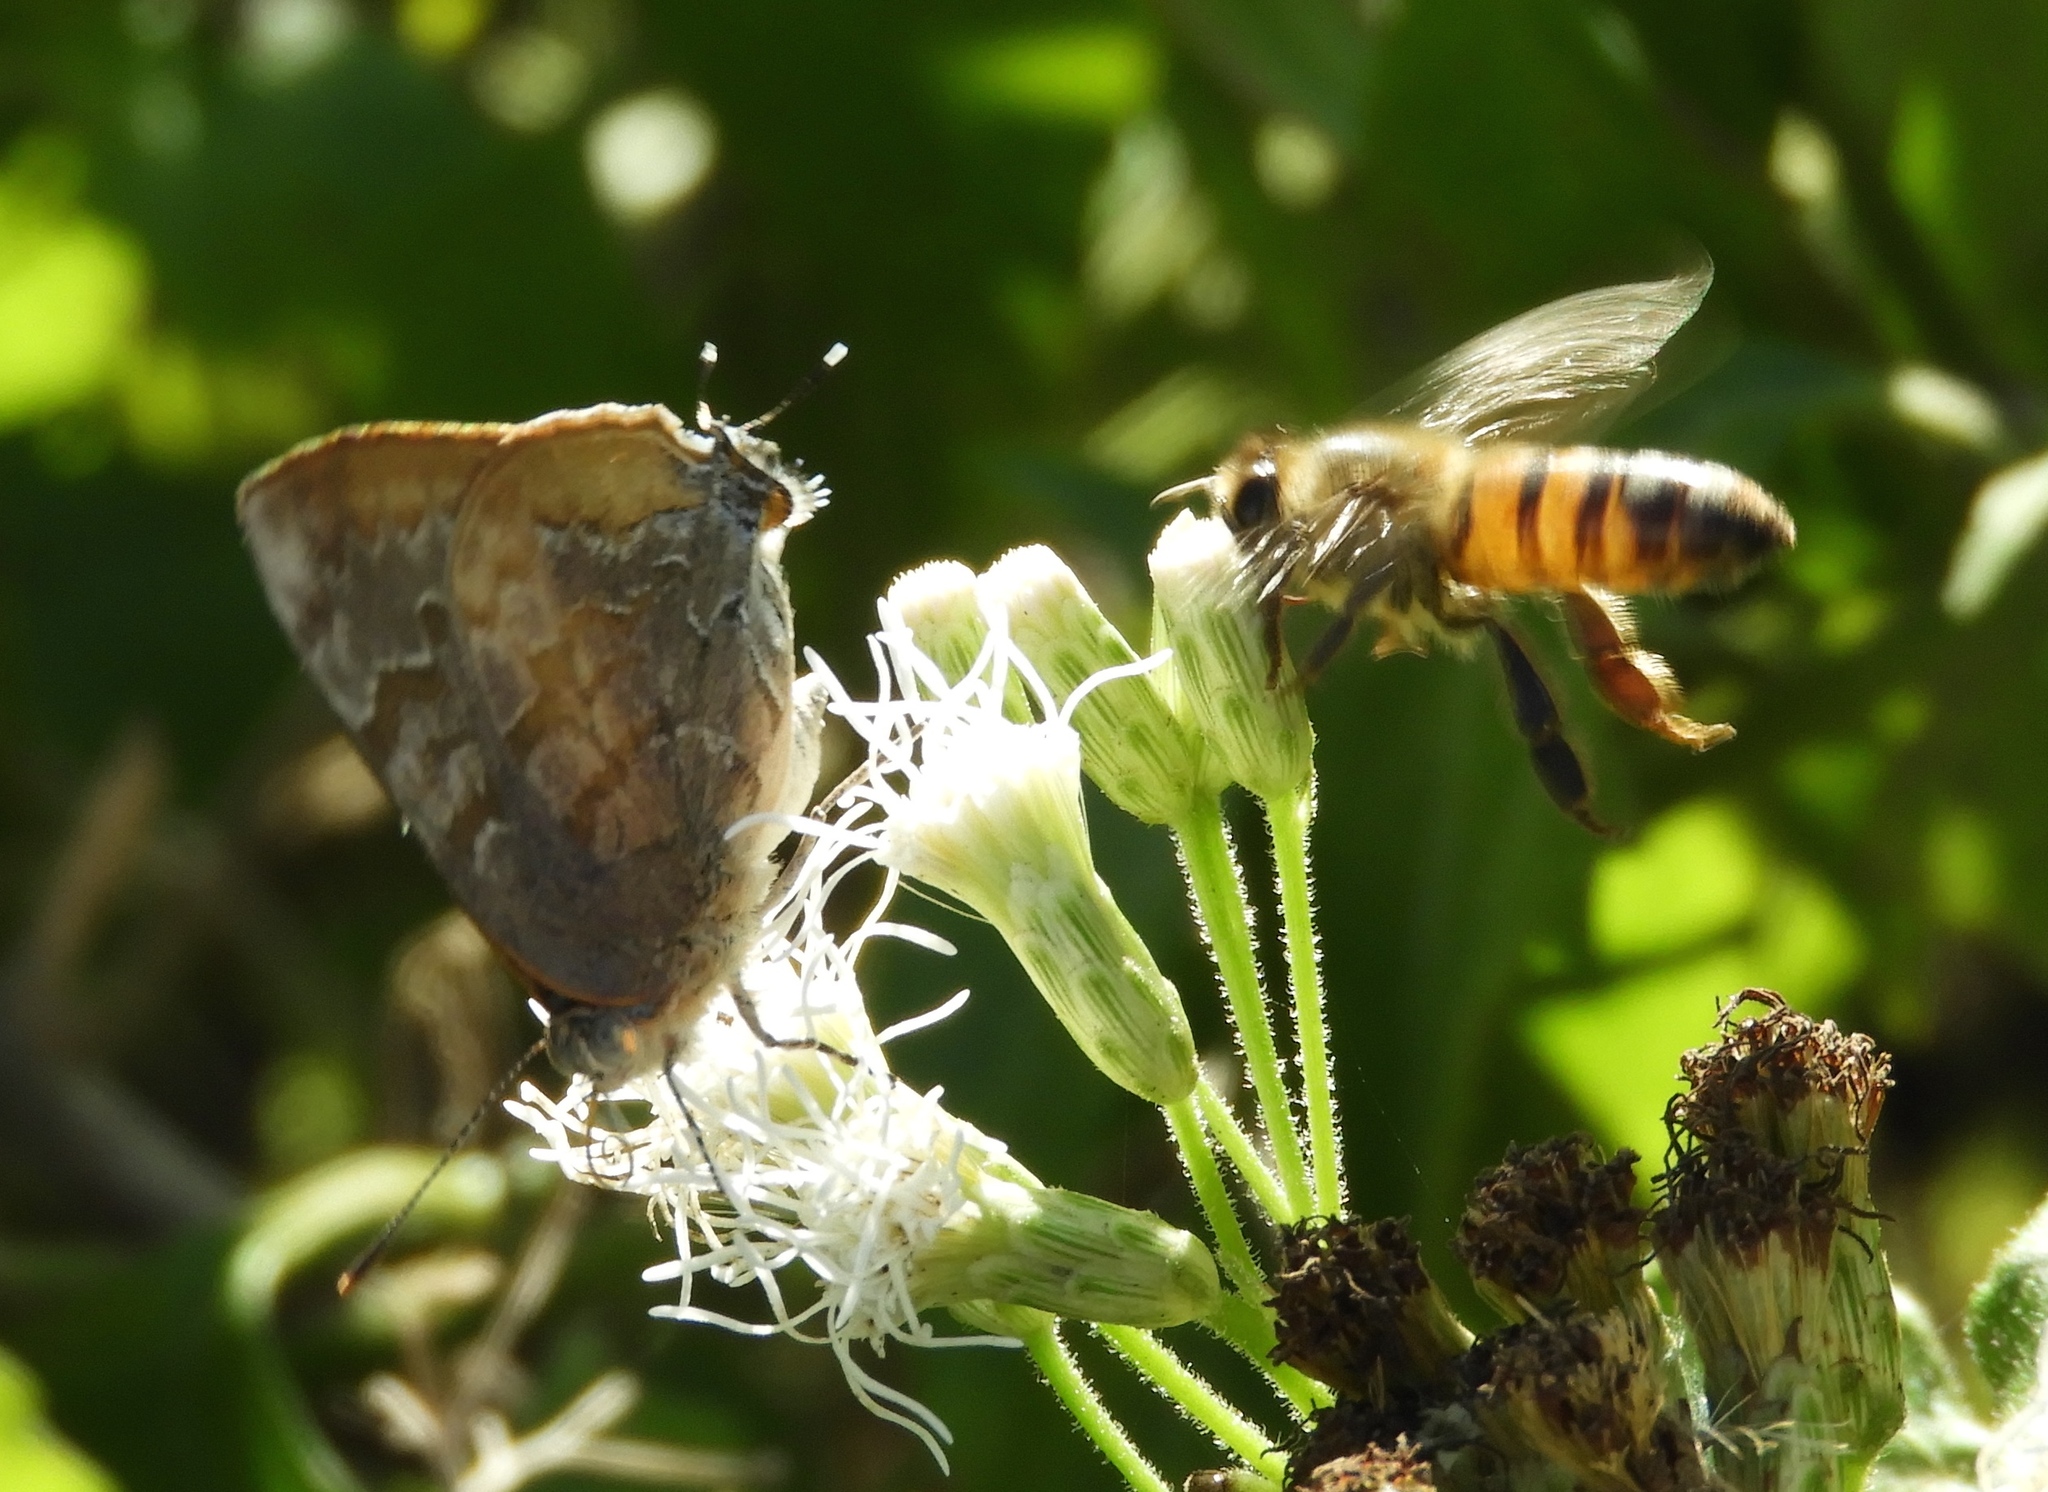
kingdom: Animalia
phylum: Arthropoda
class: Insecta
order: Hymenoptera
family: Apidae
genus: Apis
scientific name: Apis mellifera
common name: Honey bee
